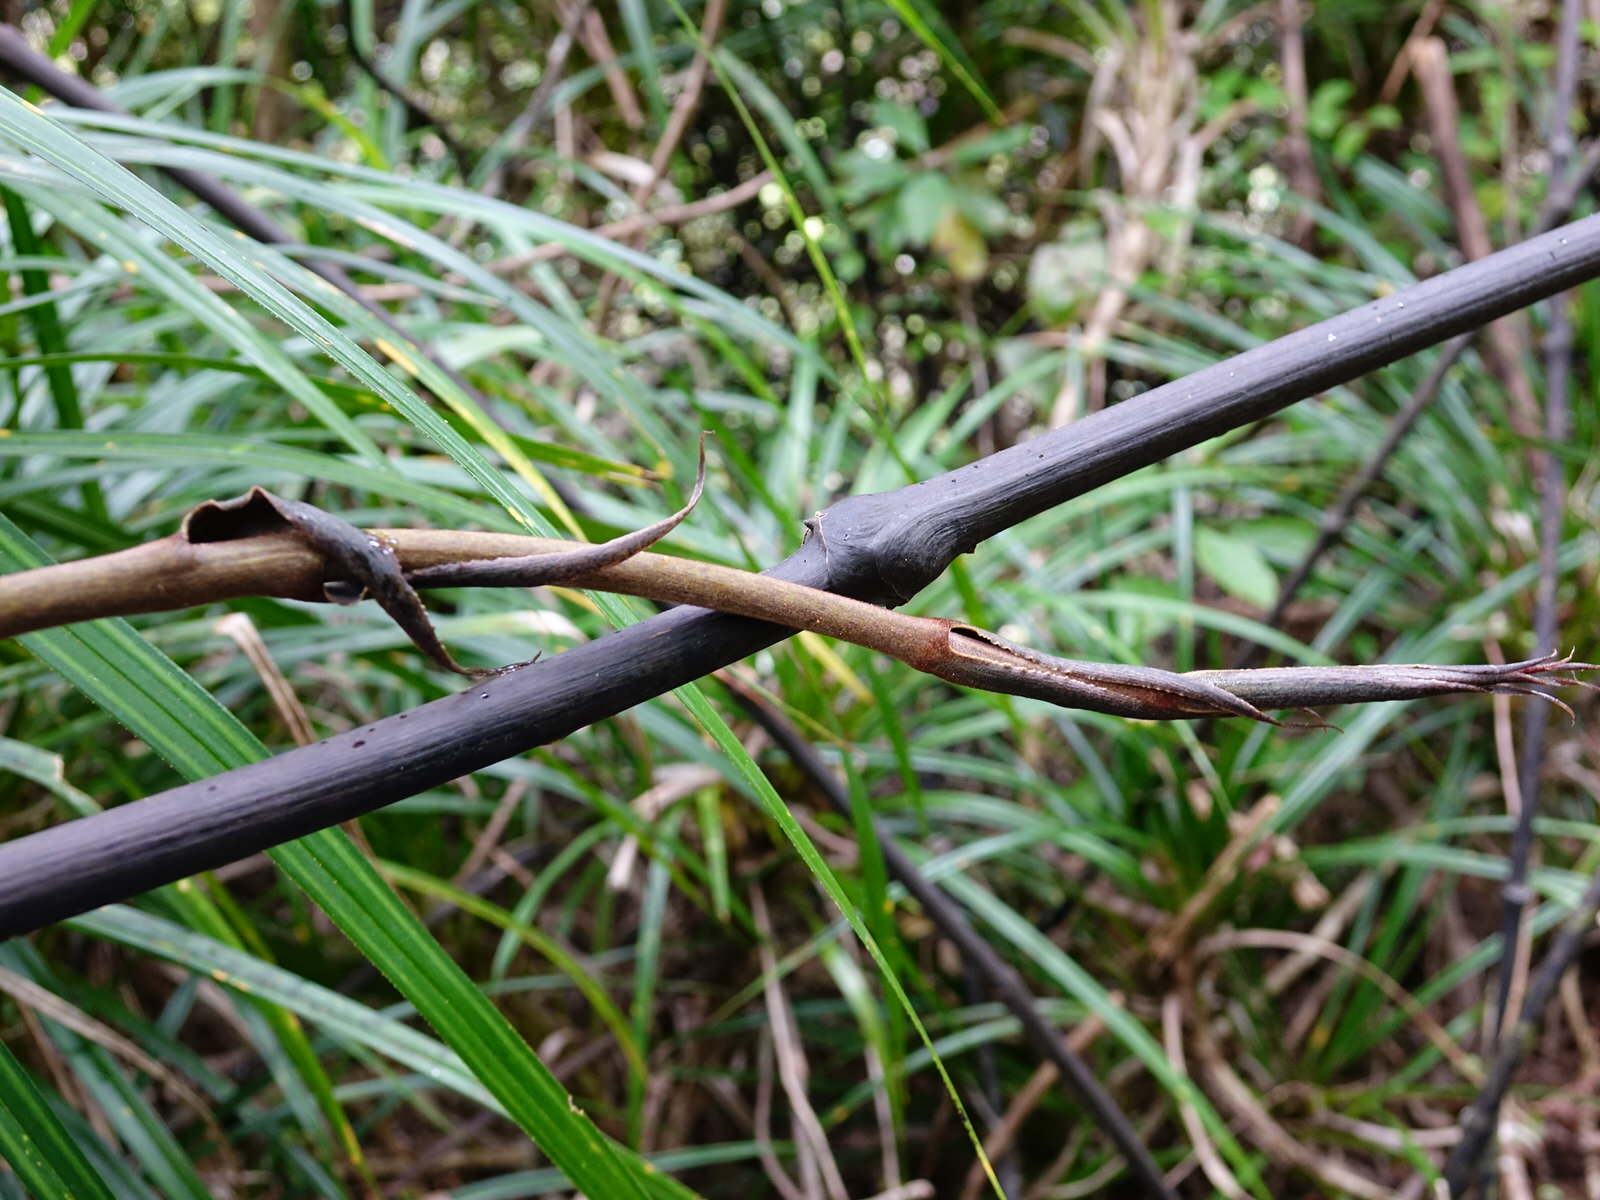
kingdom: Plantae
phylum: Tracheophyta
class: Liliopsida
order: Liliales
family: Ripogonaceae
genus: Ripogonum
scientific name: Ripogonum scandens
